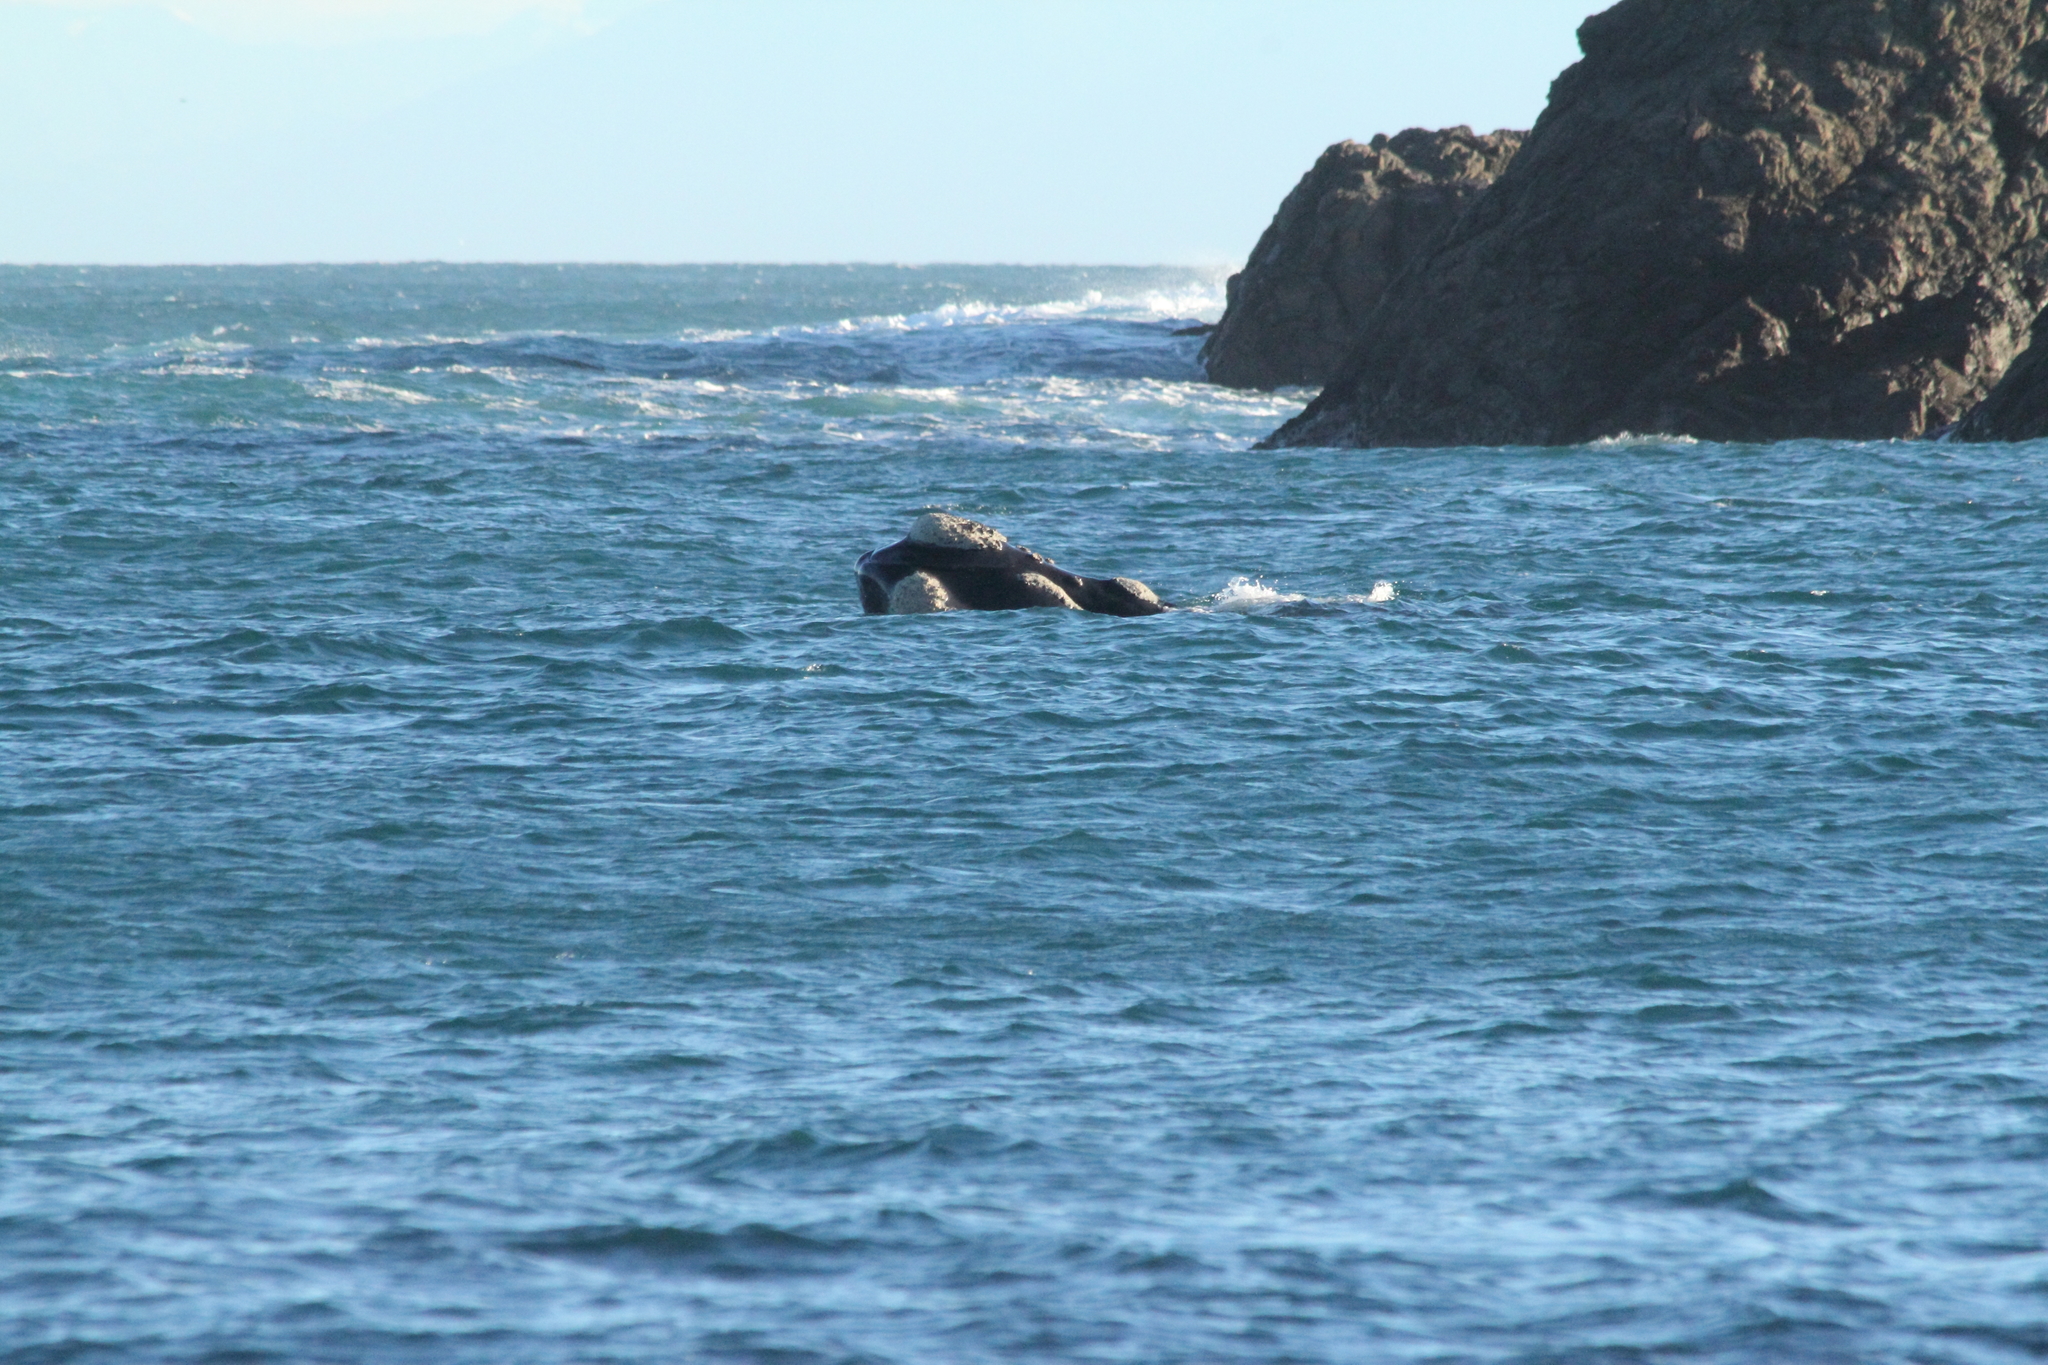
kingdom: Animalia
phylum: Chordata
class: Mammalia
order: Cetacea
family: Balaenidae
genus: Eubalaena
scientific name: Eubalaena australis
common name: Southern right whale
